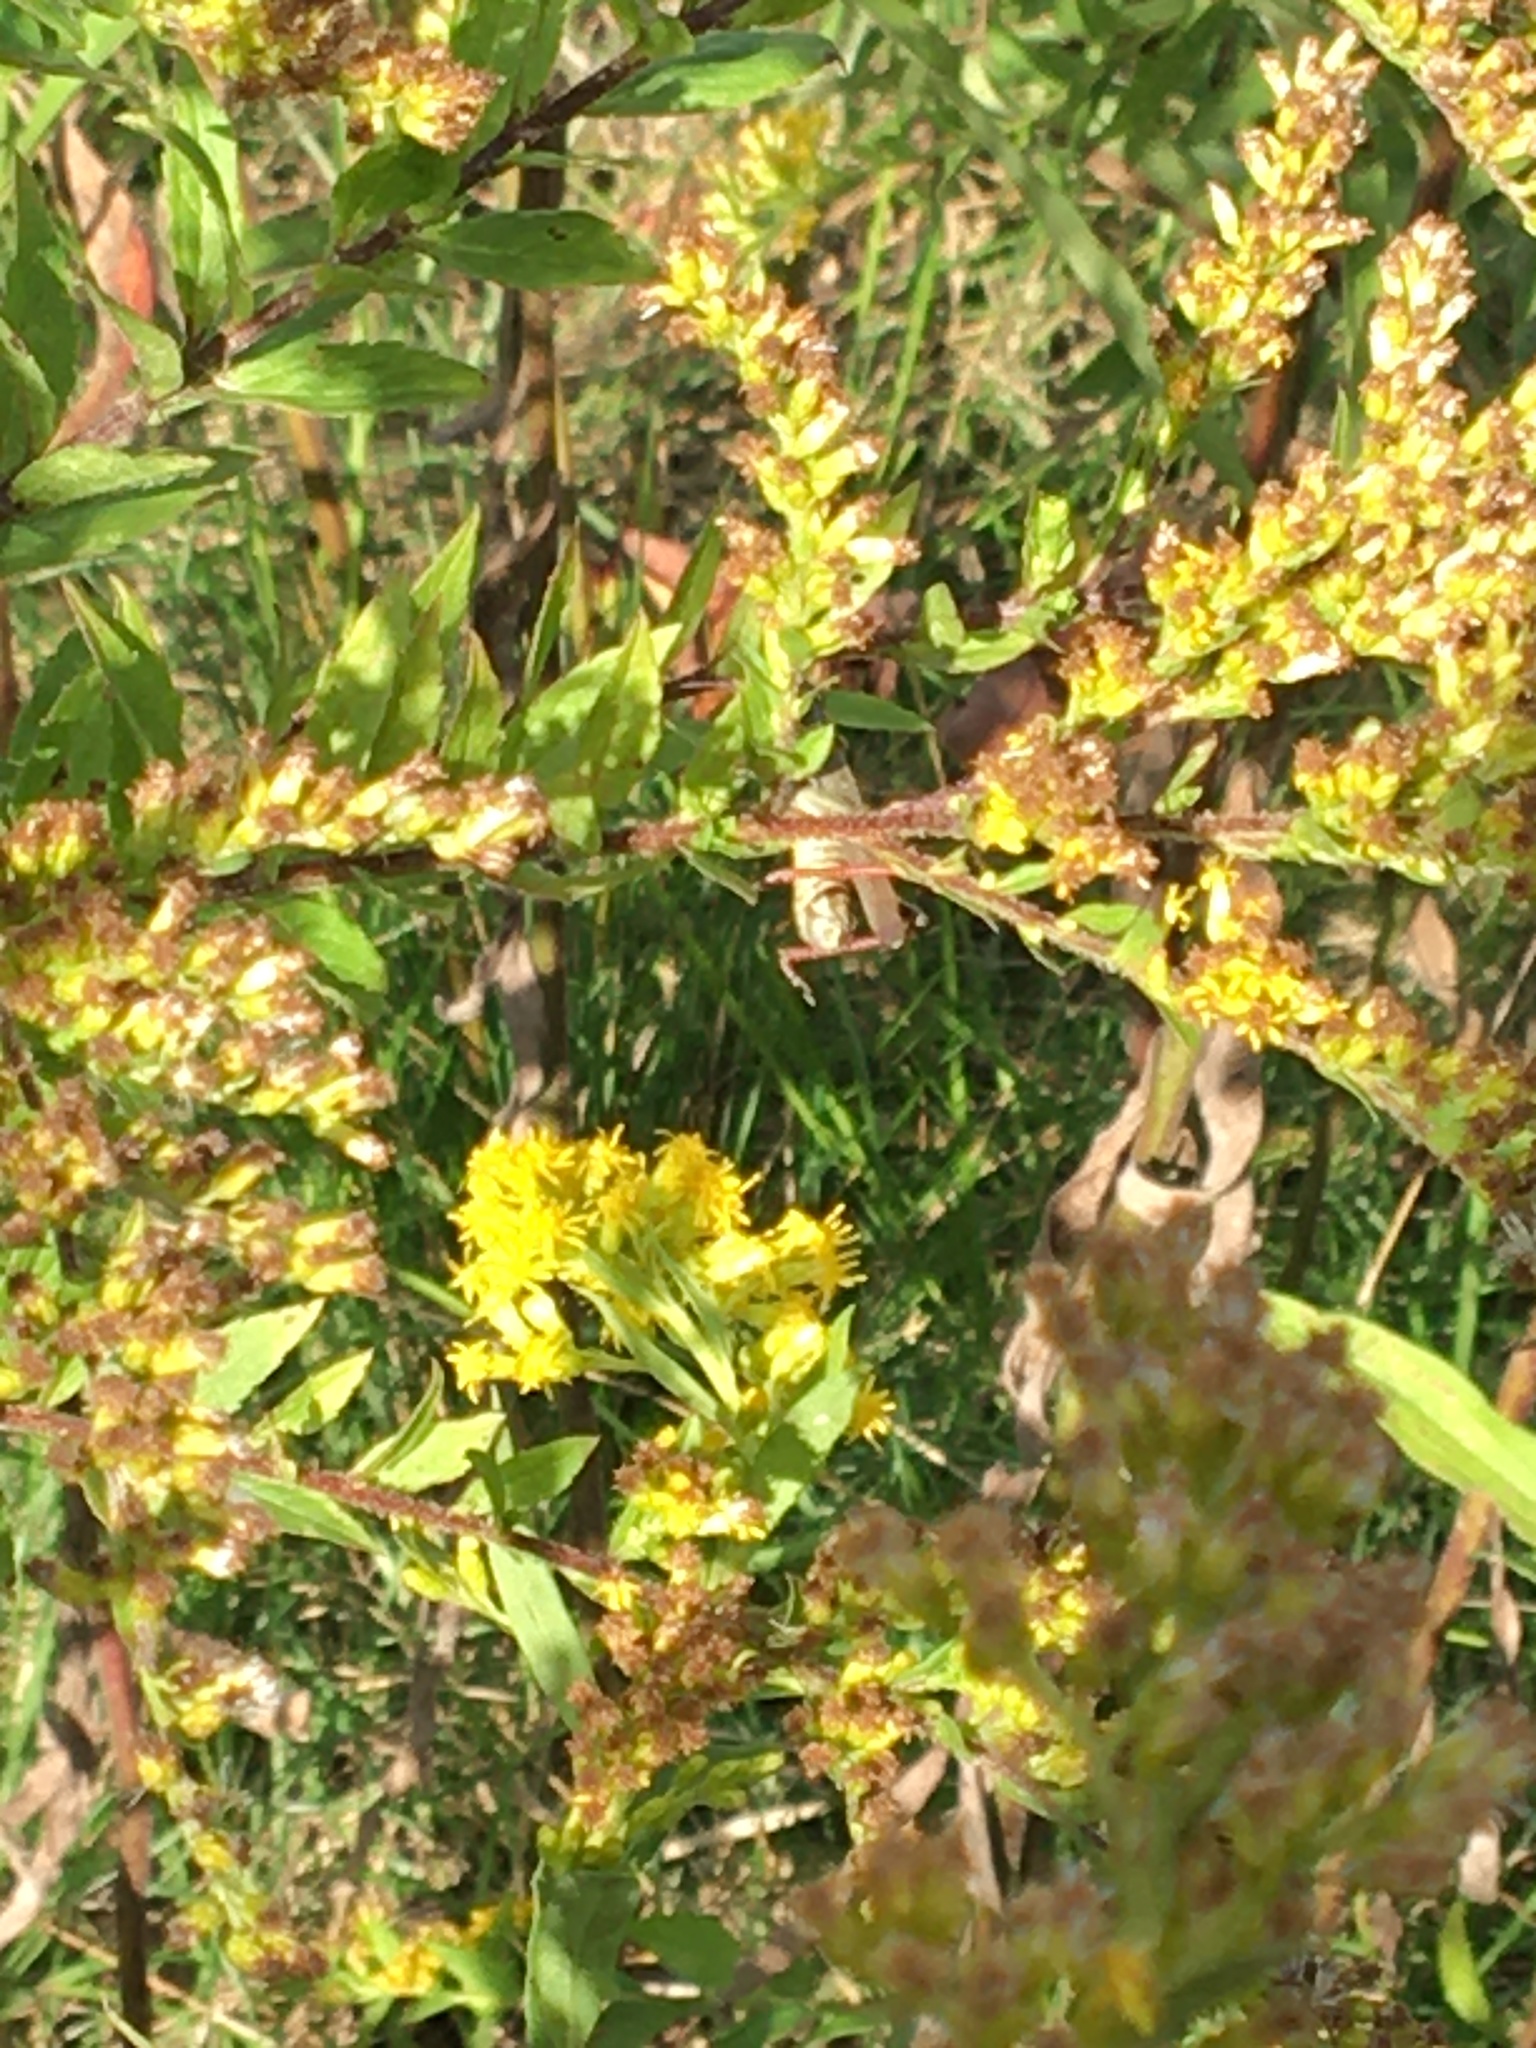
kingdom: Animalia
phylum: Arthropoda
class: Insecta
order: Orthoptera
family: Acrididae
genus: Melanoplus
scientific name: Melanoplus femurrubrum
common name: Red-legged grasshopper
